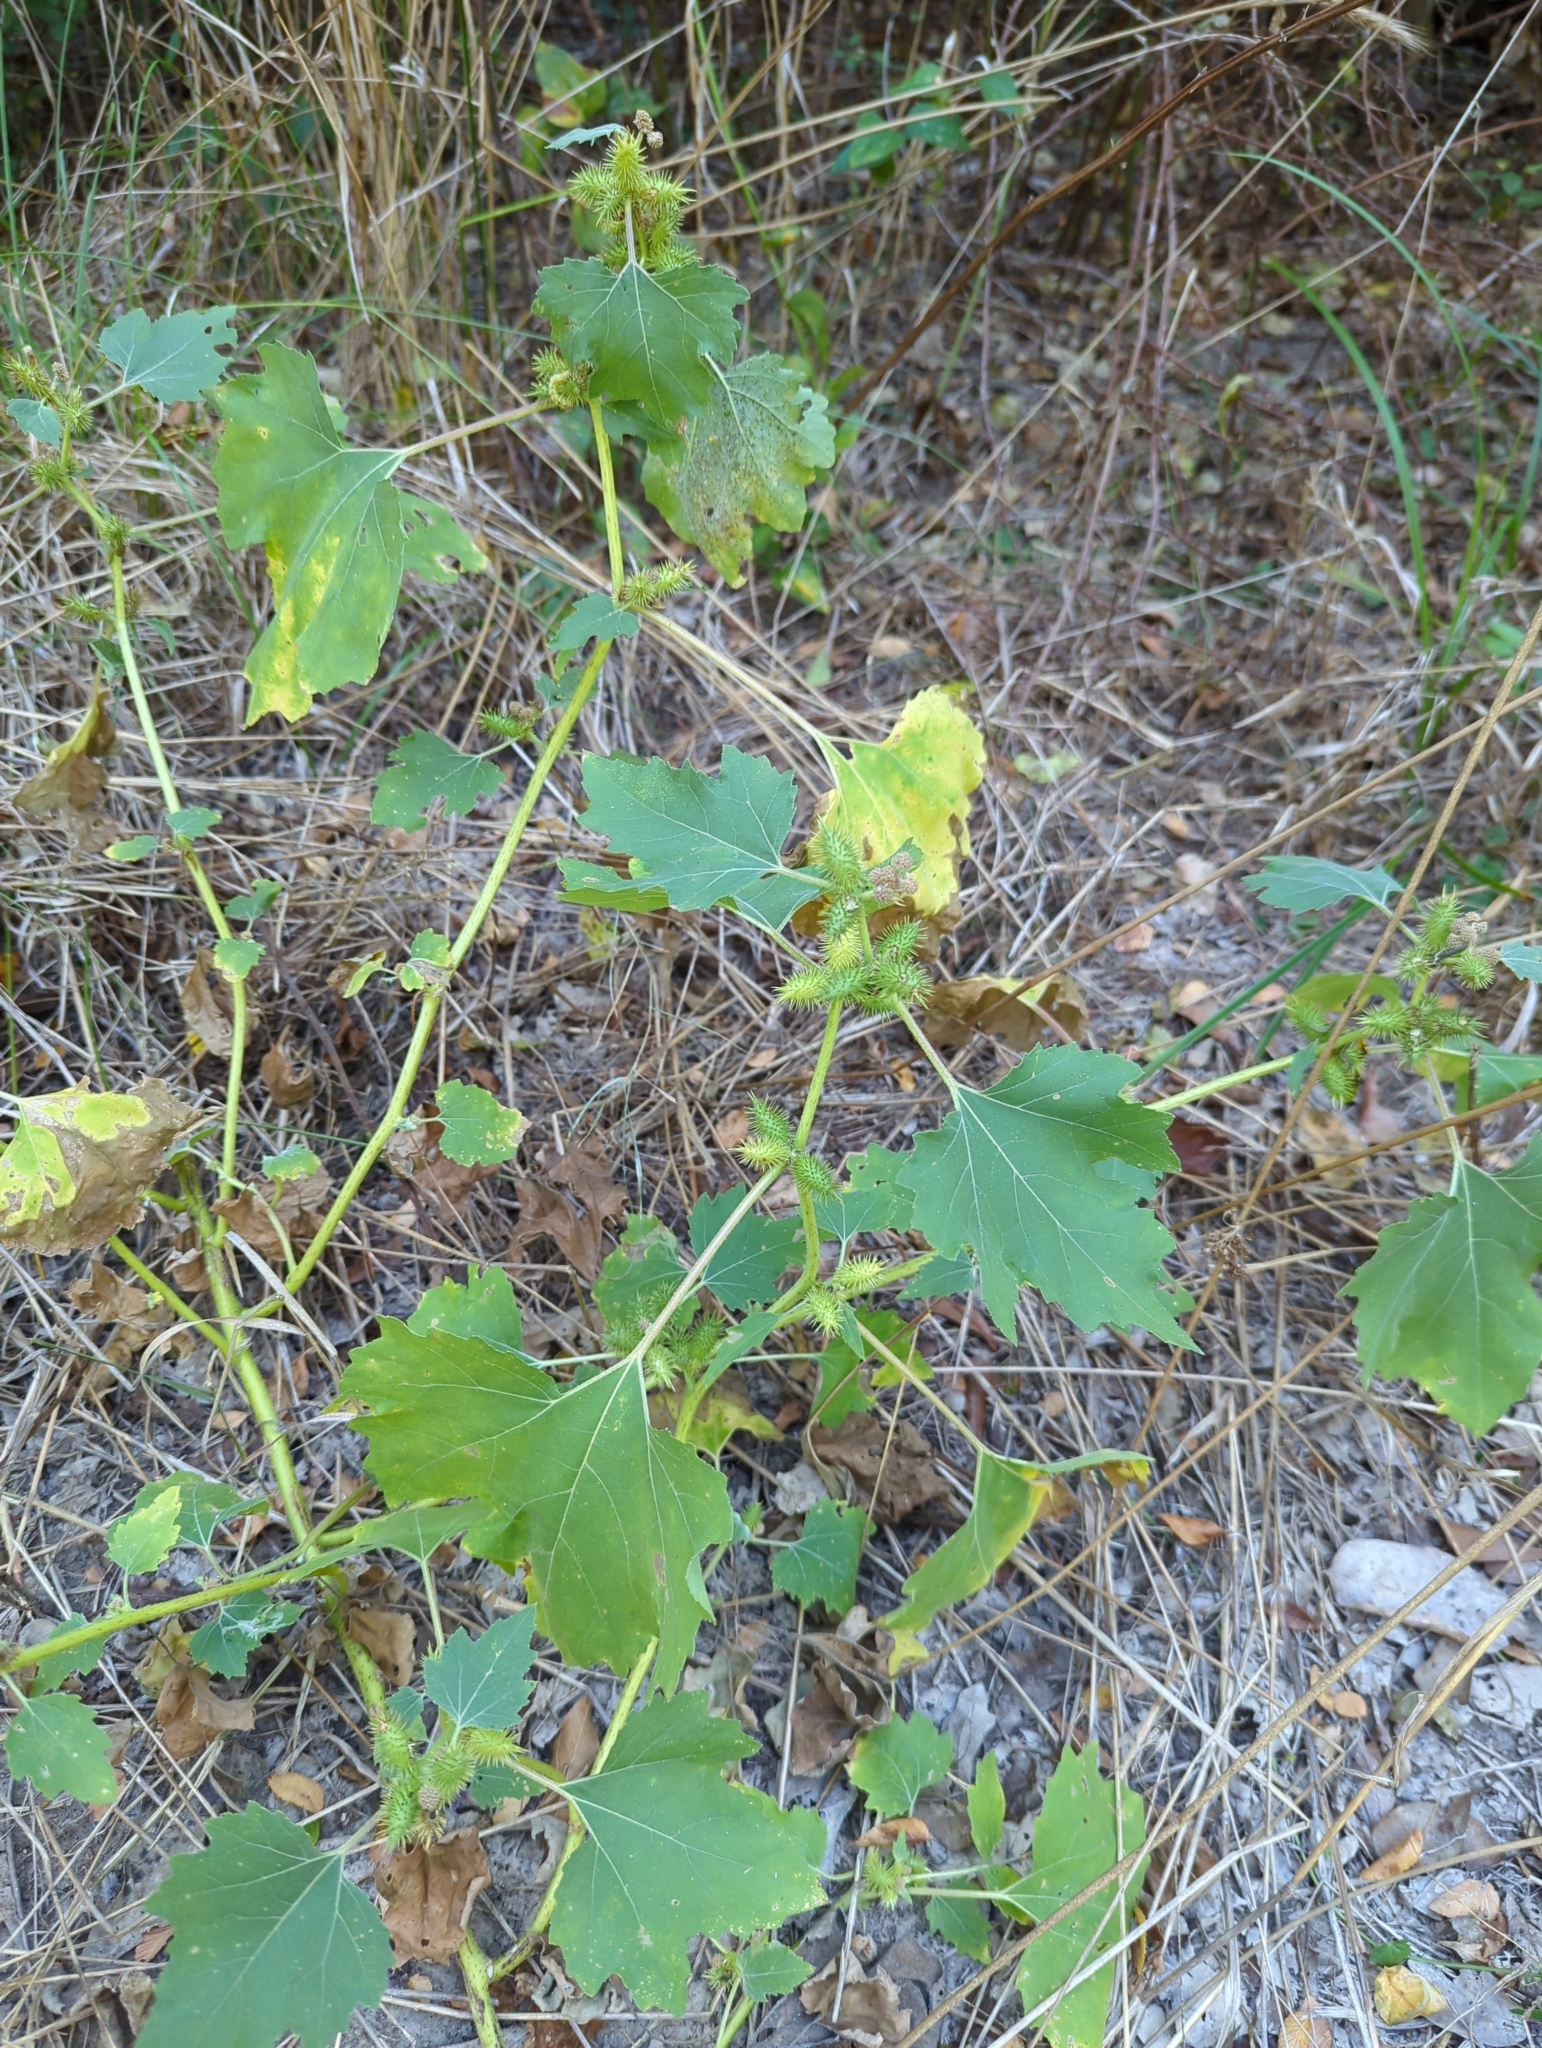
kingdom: Plantae
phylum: Tracheophyta
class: Magnoliopsida
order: Asterales
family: Asteraceae
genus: Xanthium
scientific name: Xanthium strumarium
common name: Rough cocklebur
